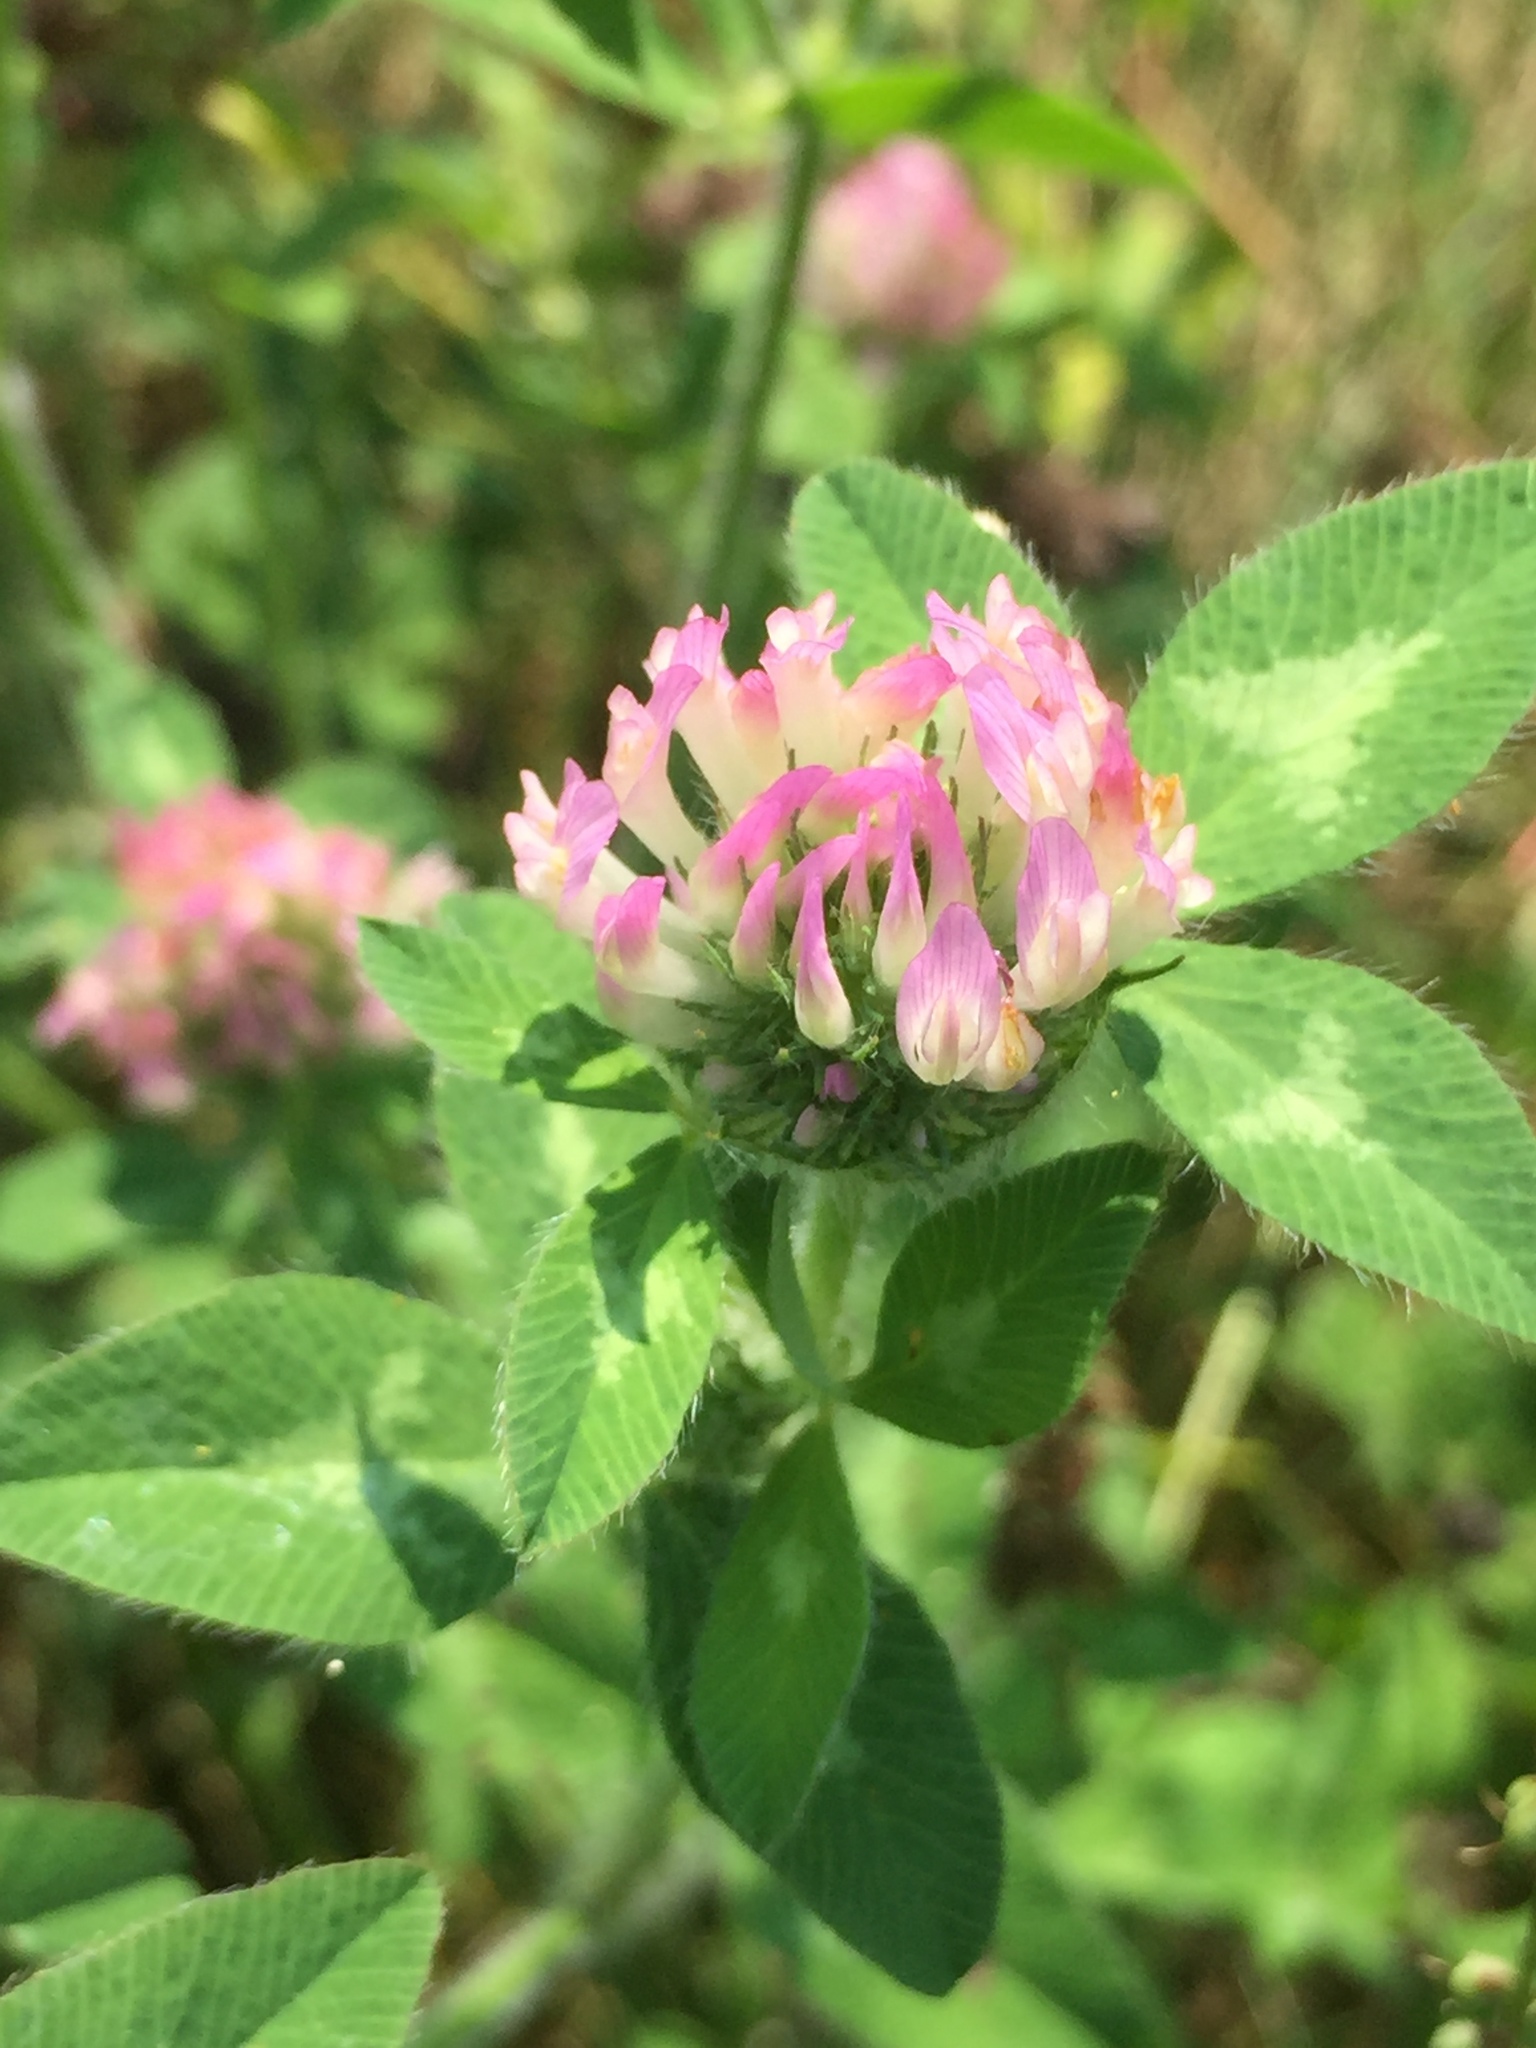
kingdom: Plantae
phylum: Tracheophyta
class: Magnoliopsida
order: Fabales
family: Fabaceae
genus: Trifolium
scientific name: Trifolium pratense
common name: Red clover
